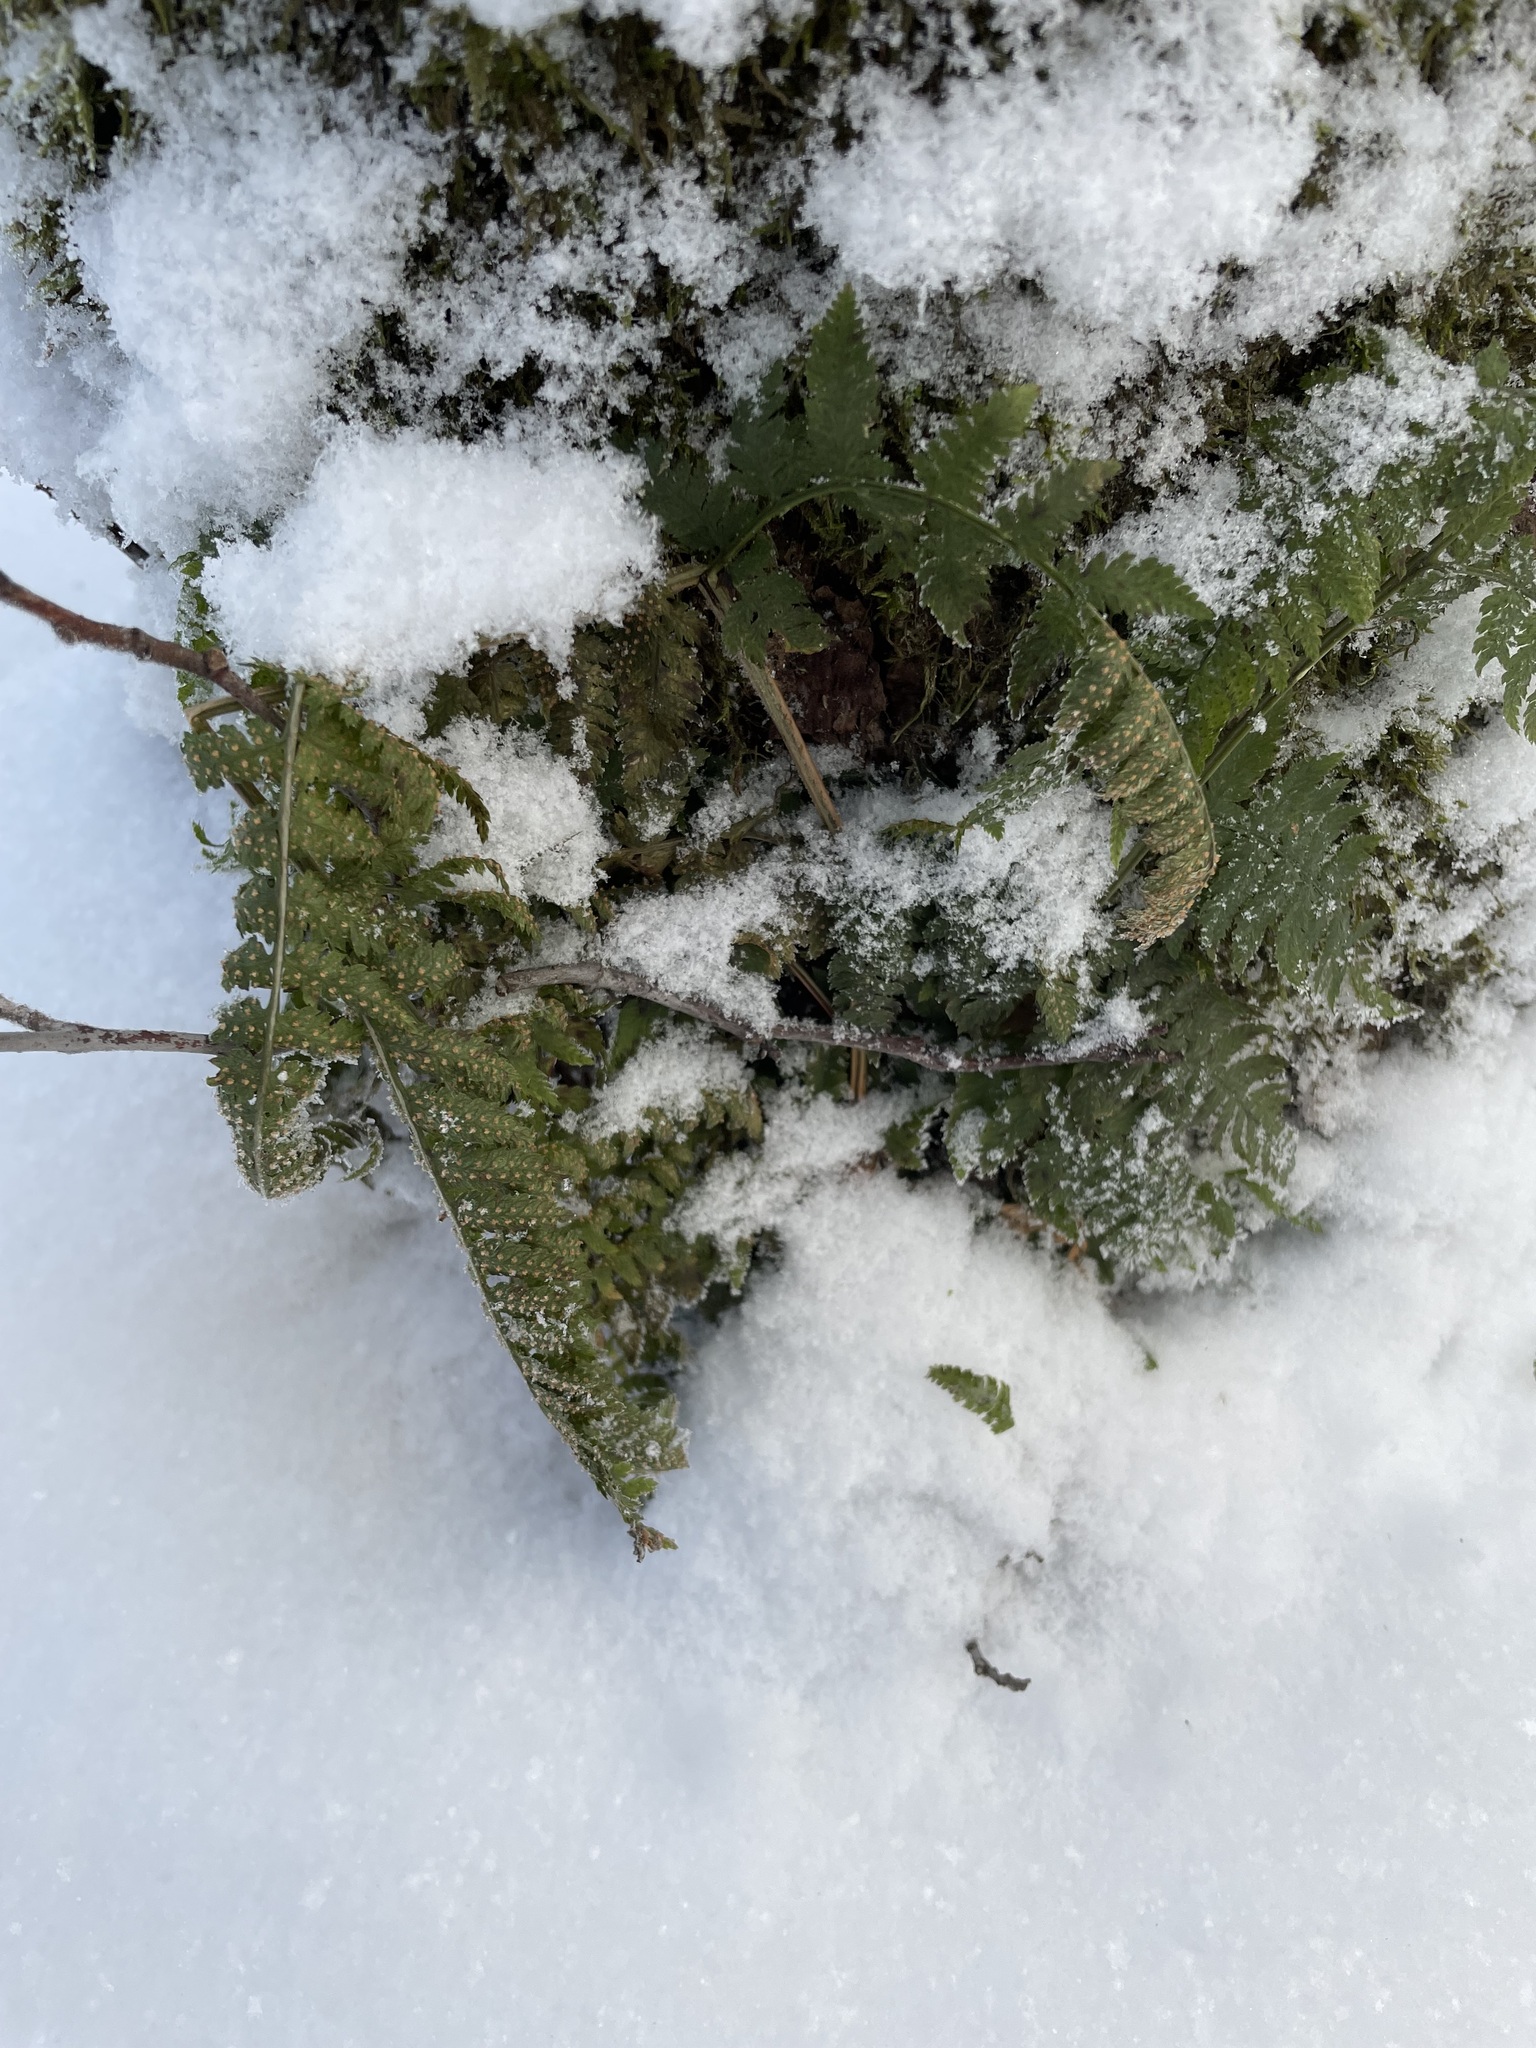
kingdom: Plantae
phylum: Tracheophyta
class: Polypodiopsida
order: Polypodiales
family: Dryopteridaceae
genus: Dryopteris
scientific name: Dryopteris carthusiana
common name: Narrow buckler-fern
